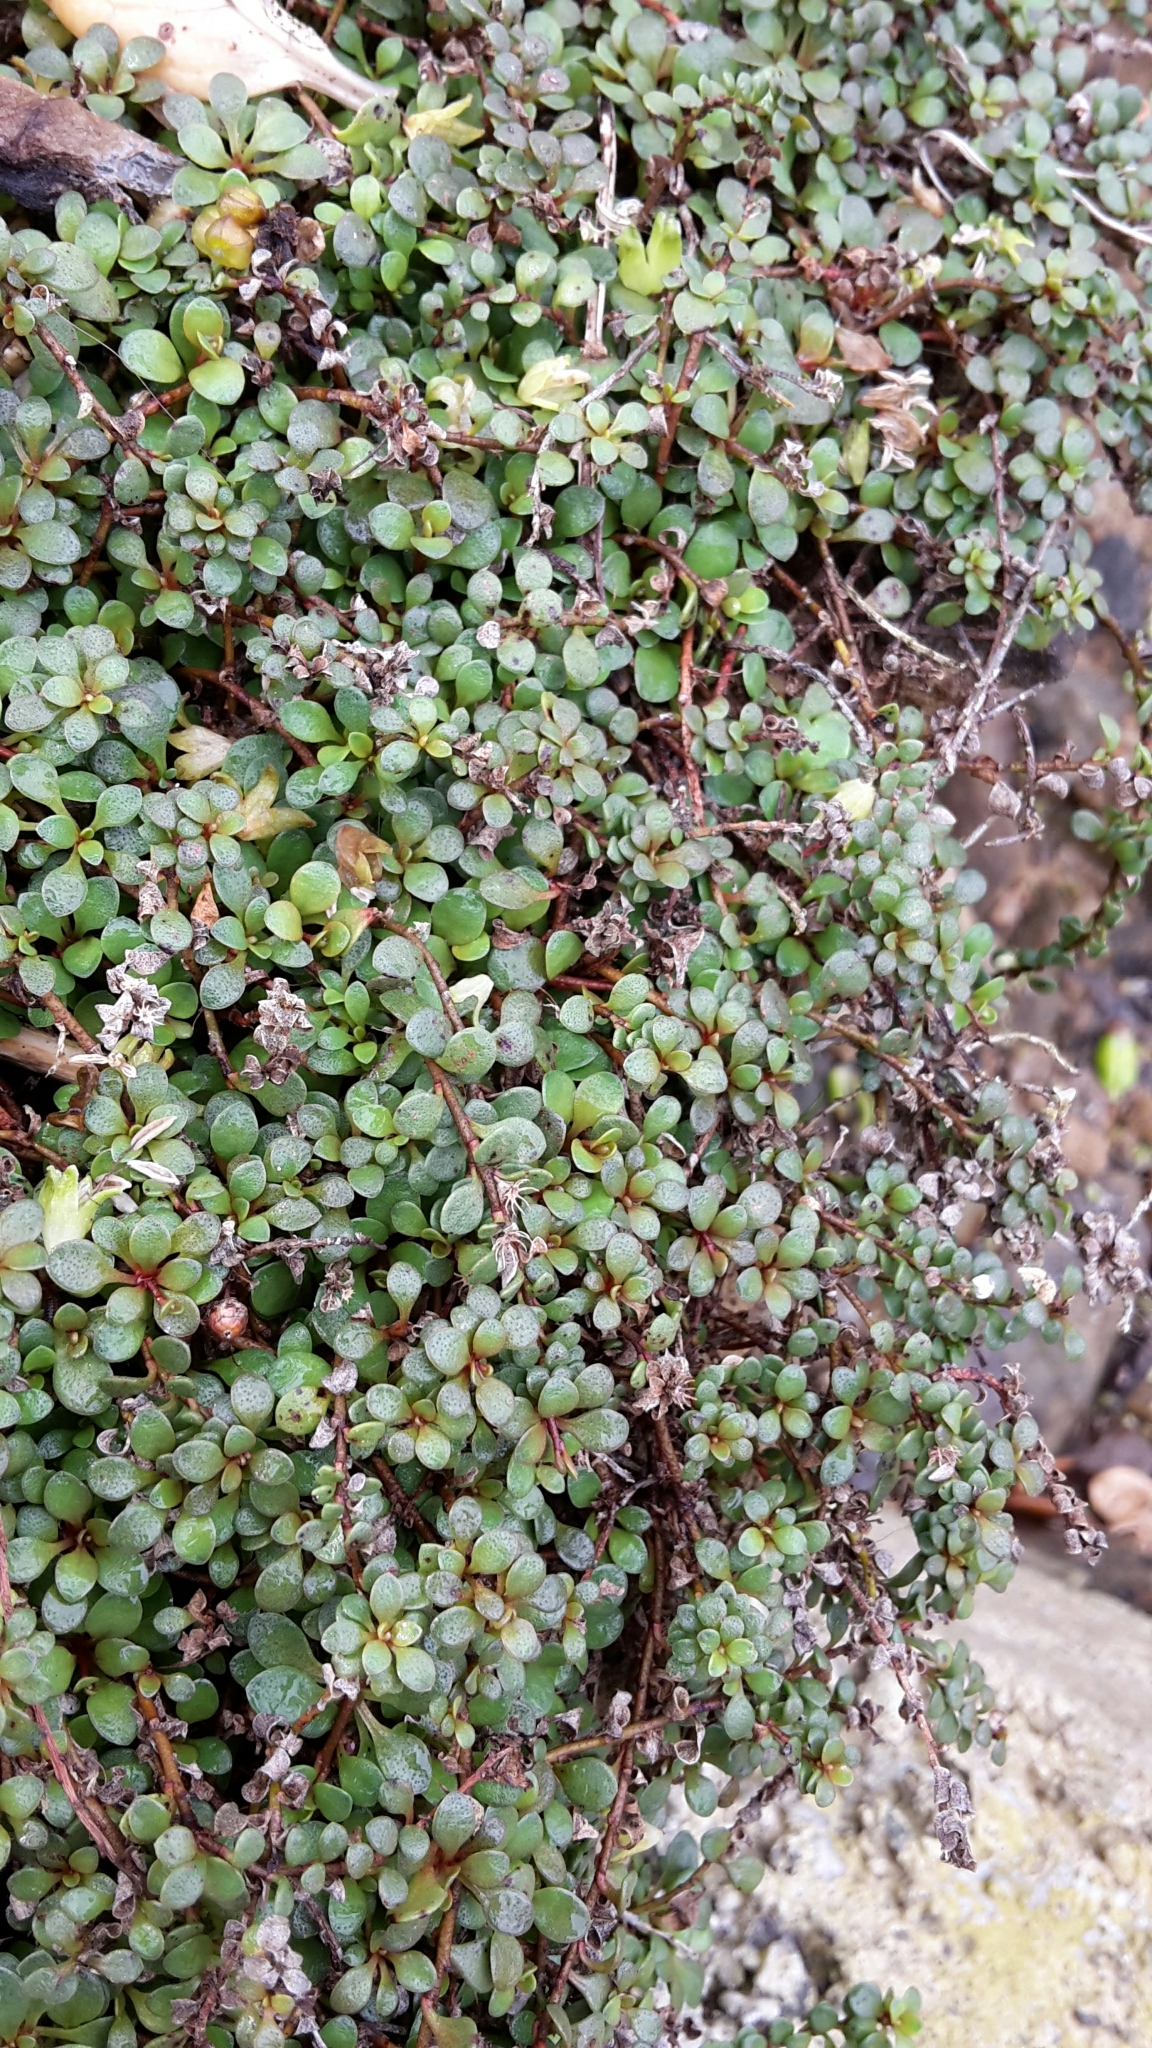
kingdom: Plantae
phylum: Tracheophyta
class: Magnoliopsida
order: Ericales
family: Primulaceae
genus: Samolus
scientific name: Samolus repens
